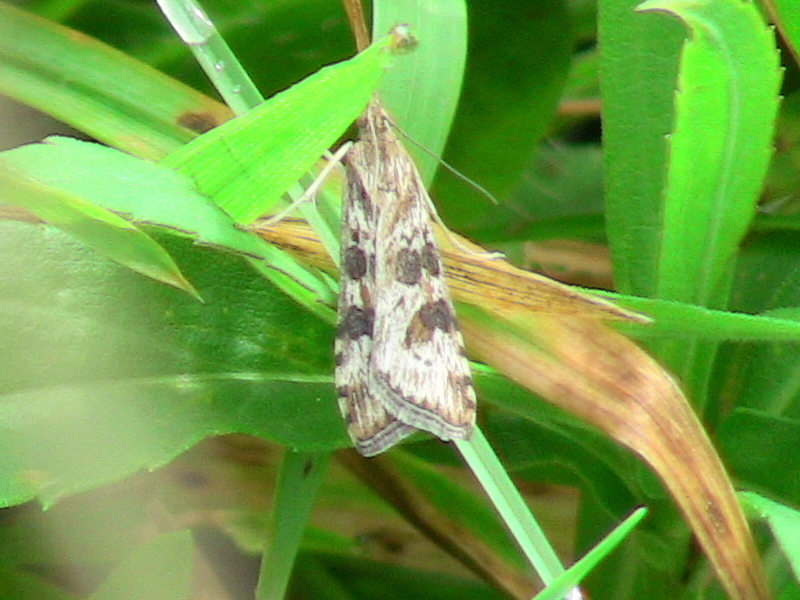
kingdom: Animalia
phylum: Arthropoda
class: Insecta
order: Lepidoptera
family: Crambidae
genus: Nomophila
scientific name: Nomophila nearctica
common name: American rush veneer
